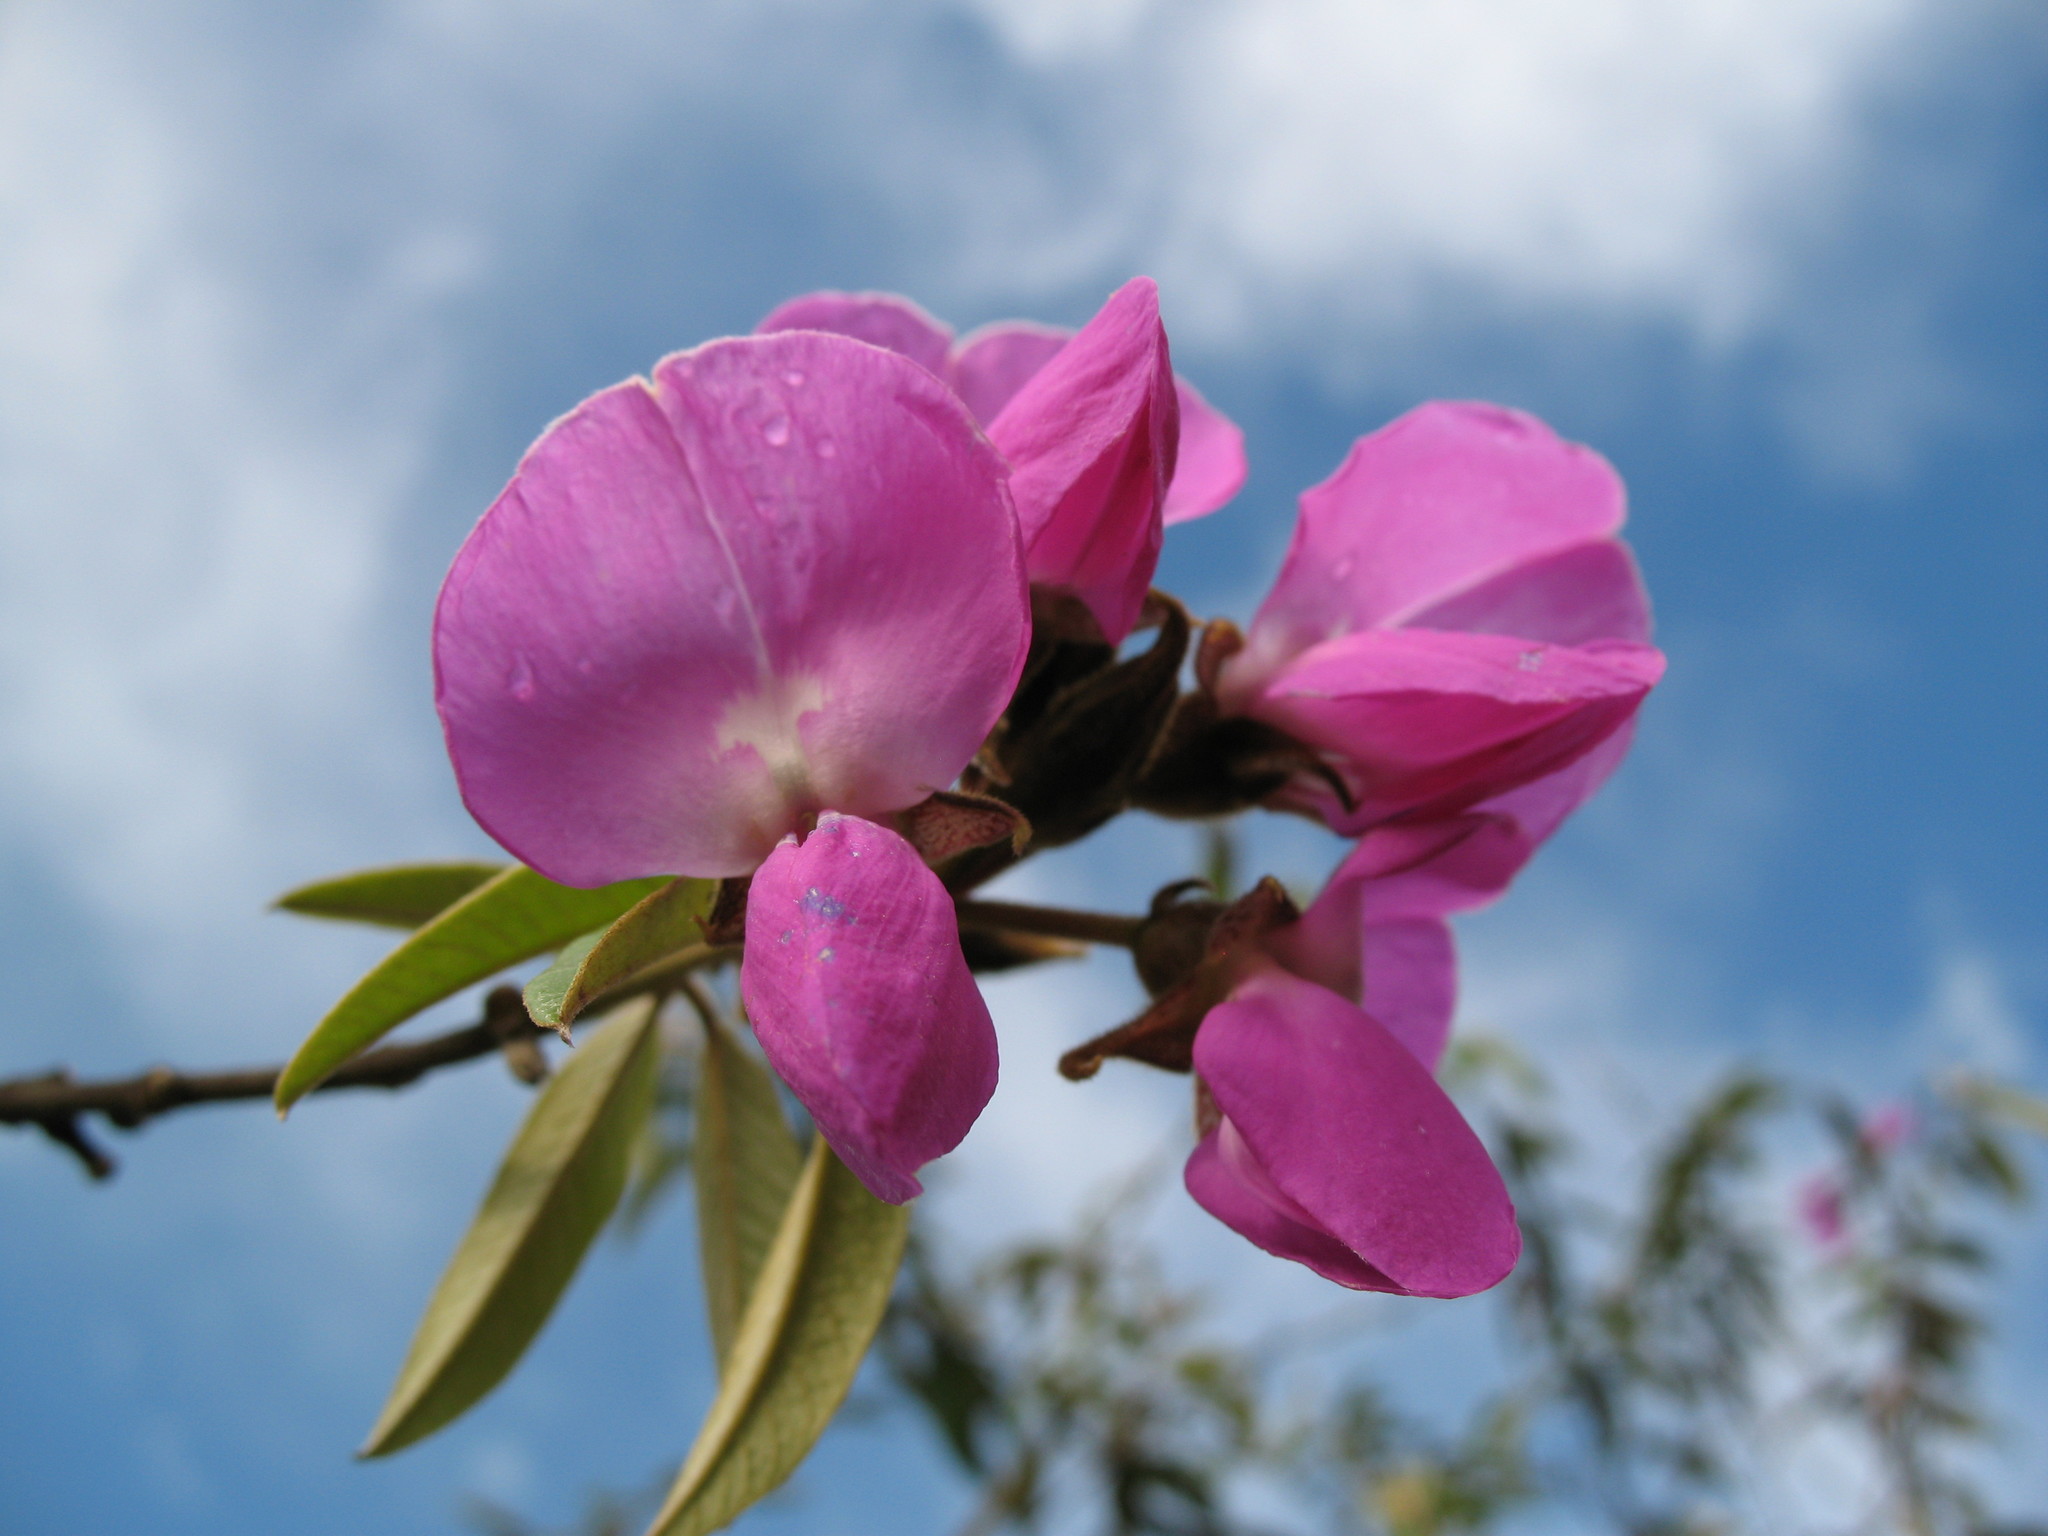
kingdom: Plantae
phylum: Tracheophyta
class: Magnoliopsida
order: Fabales
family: Fabaceae
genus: Collaea
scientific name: Collaea speciosa
